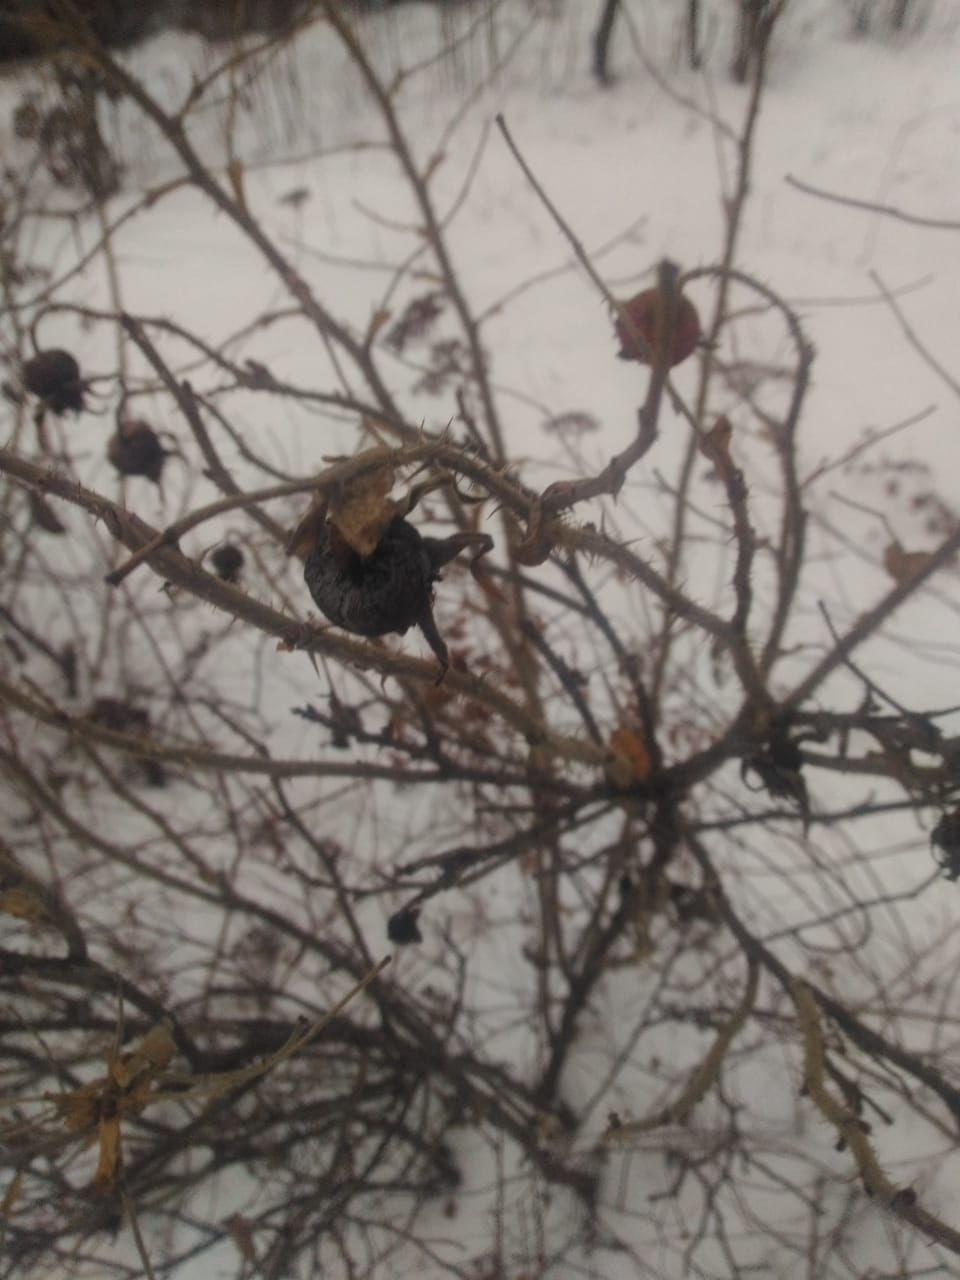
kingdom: Plantae
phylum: Tracheophyta
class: Magnoliopsida
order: Rosales
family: Rosaceae
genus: Rosa
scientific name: Rosa rugosa
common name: Japanese rose
